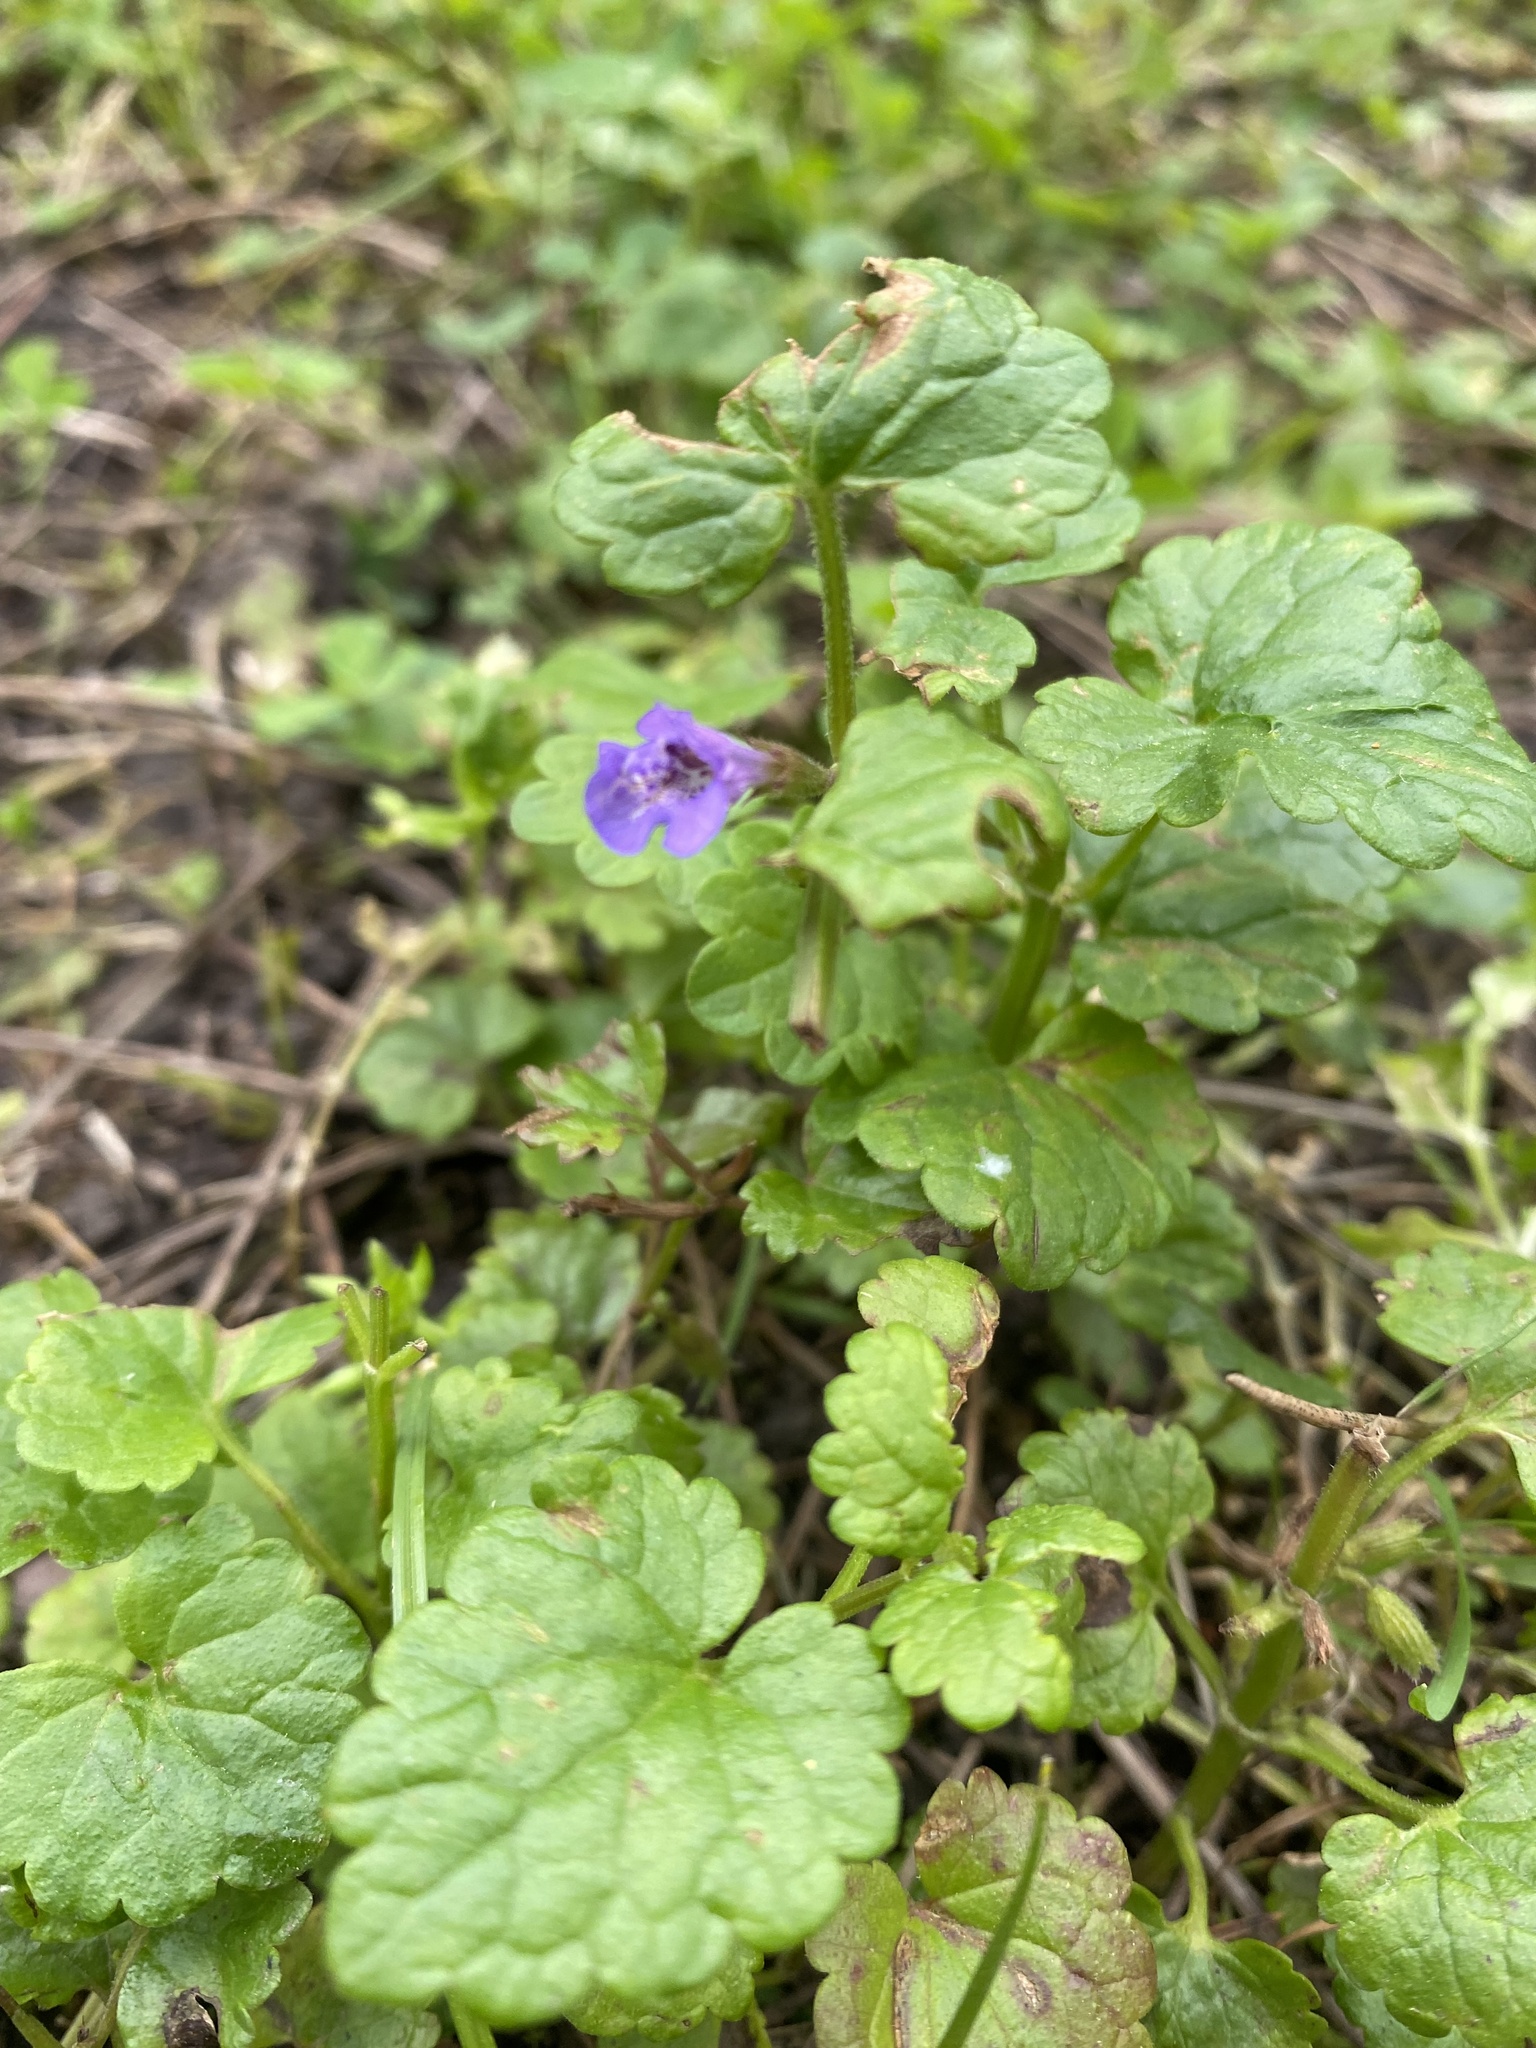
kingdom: Plantae
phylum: Tracheophyta
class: Magnoliopsida
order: Lamiales
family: Lamiaceae
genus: Glechoma
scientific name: Glechoma hederacea
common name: Ground ivy
